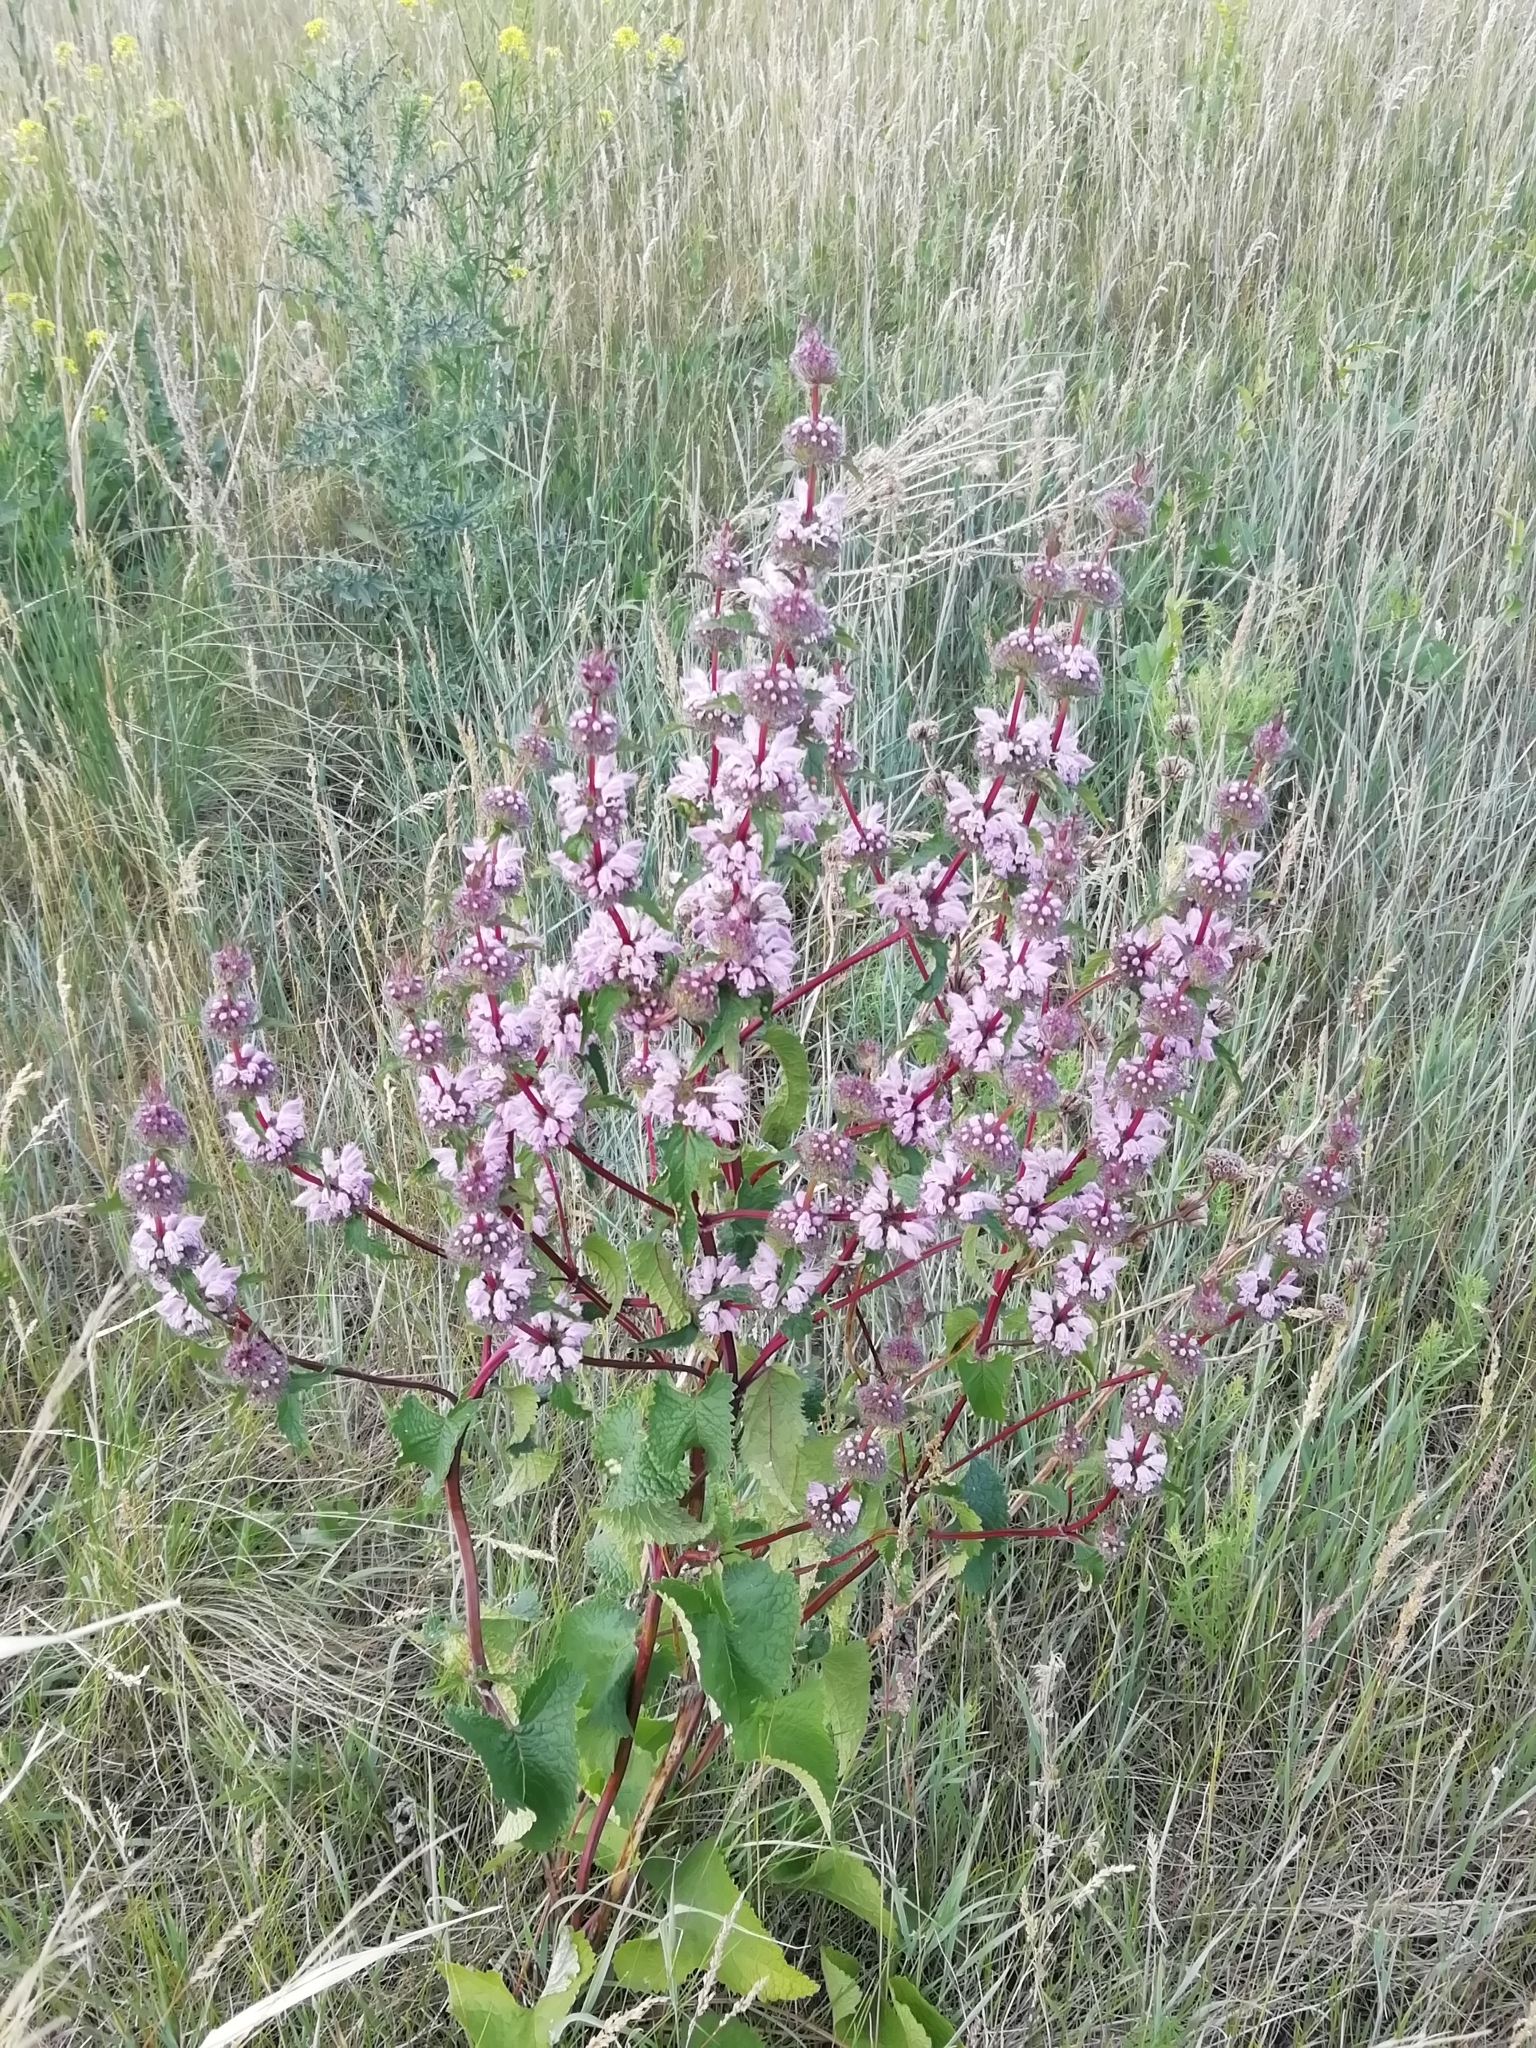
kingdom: Plantae
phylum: Tracheophyta
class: Magnoliopsida
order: Lamiales
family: Lamiaceae
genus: Phlomoides
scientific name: Phlomoides tuberosa
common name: Tuberous jerusalem sage
